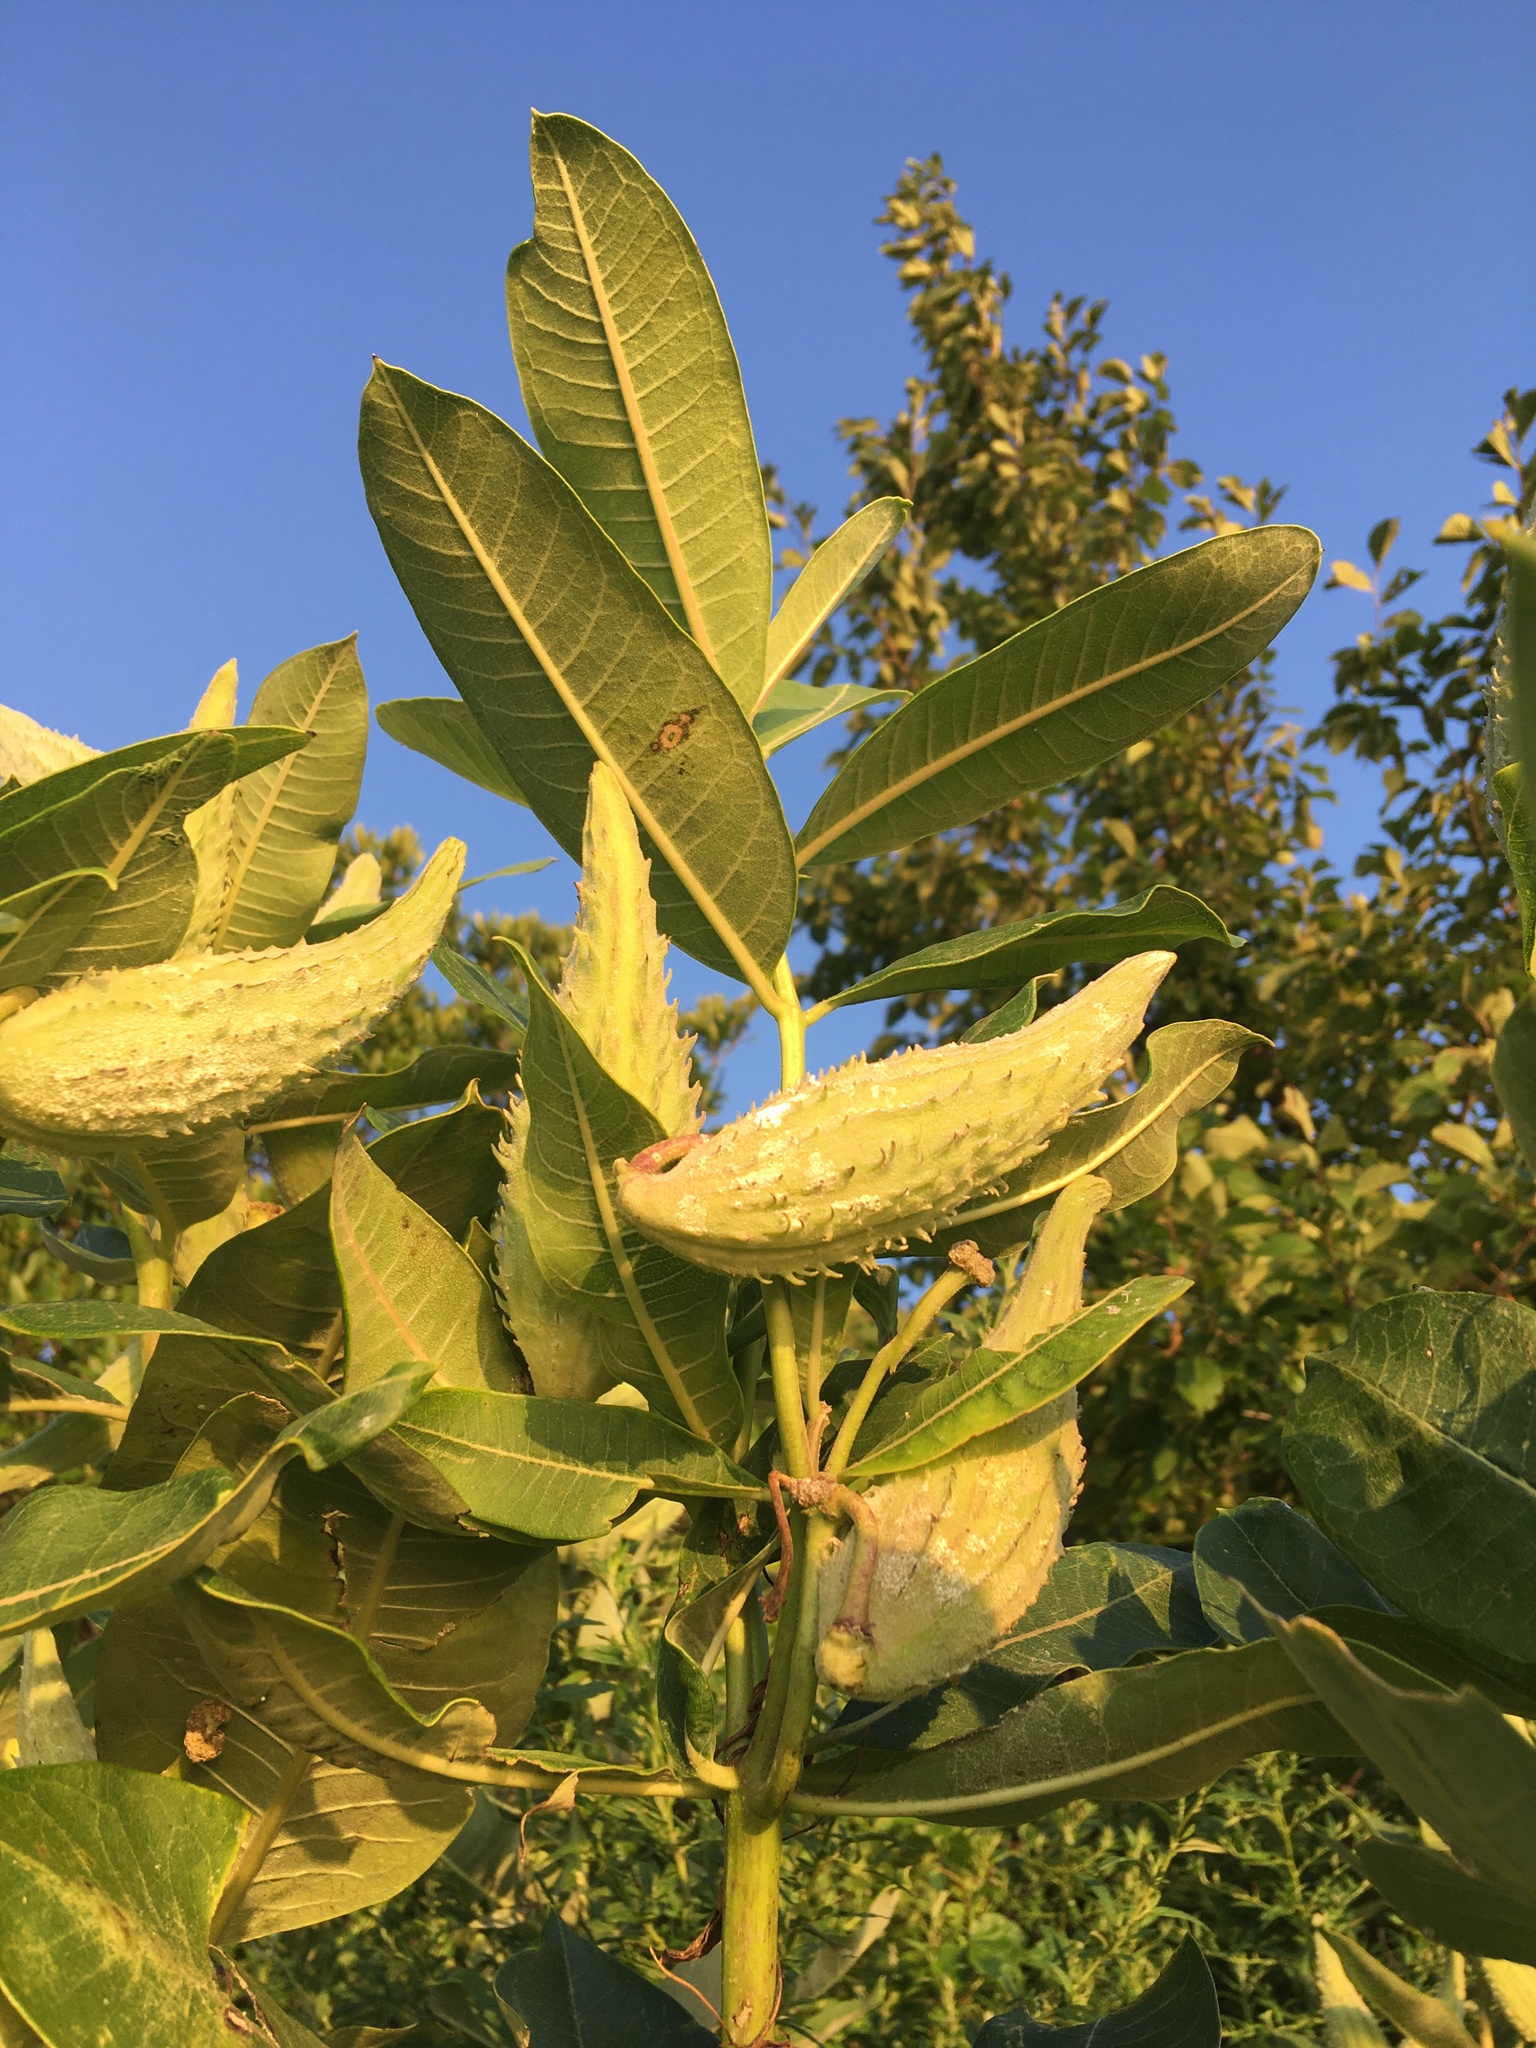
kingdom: Plantae
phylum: Tracheophyta
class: Magnoliopsida
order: Gentianales
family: Apocynaceae
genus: Asclepias
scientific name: Asclepias syriaca
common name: Common milkweed
